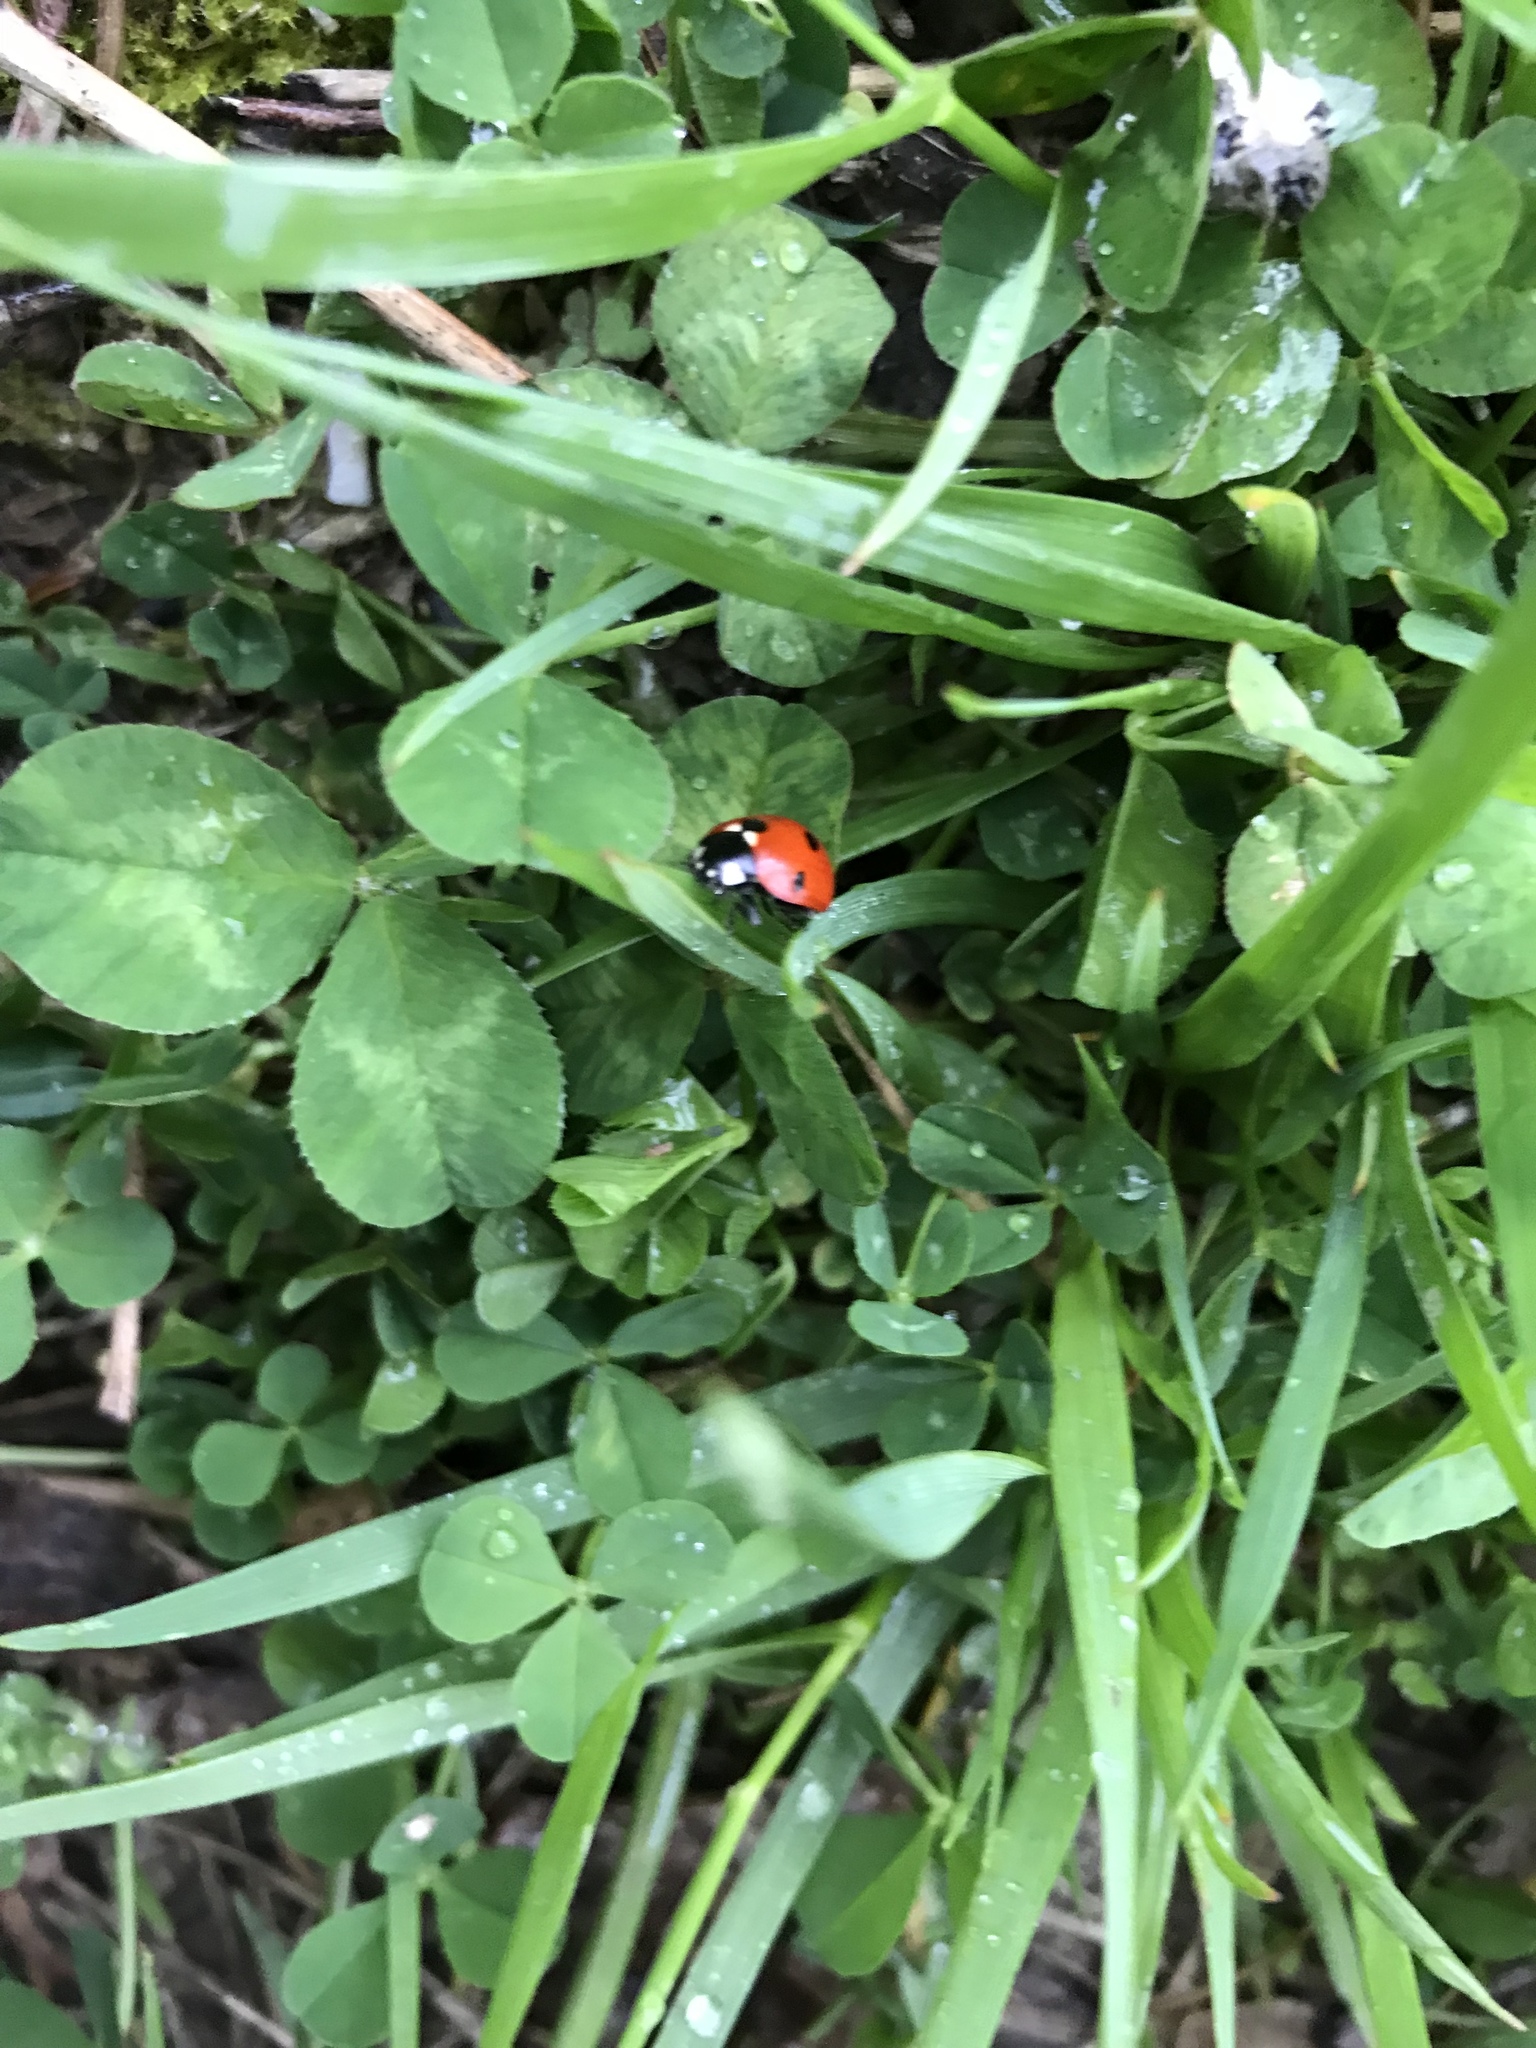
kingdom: Animalia
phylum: Arthropoda
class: Insecta
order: Coleoptera
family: Coccinellidae
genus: Coccinella
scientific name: Coccinella septempunctata
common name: Sevenspotted lady beetle
